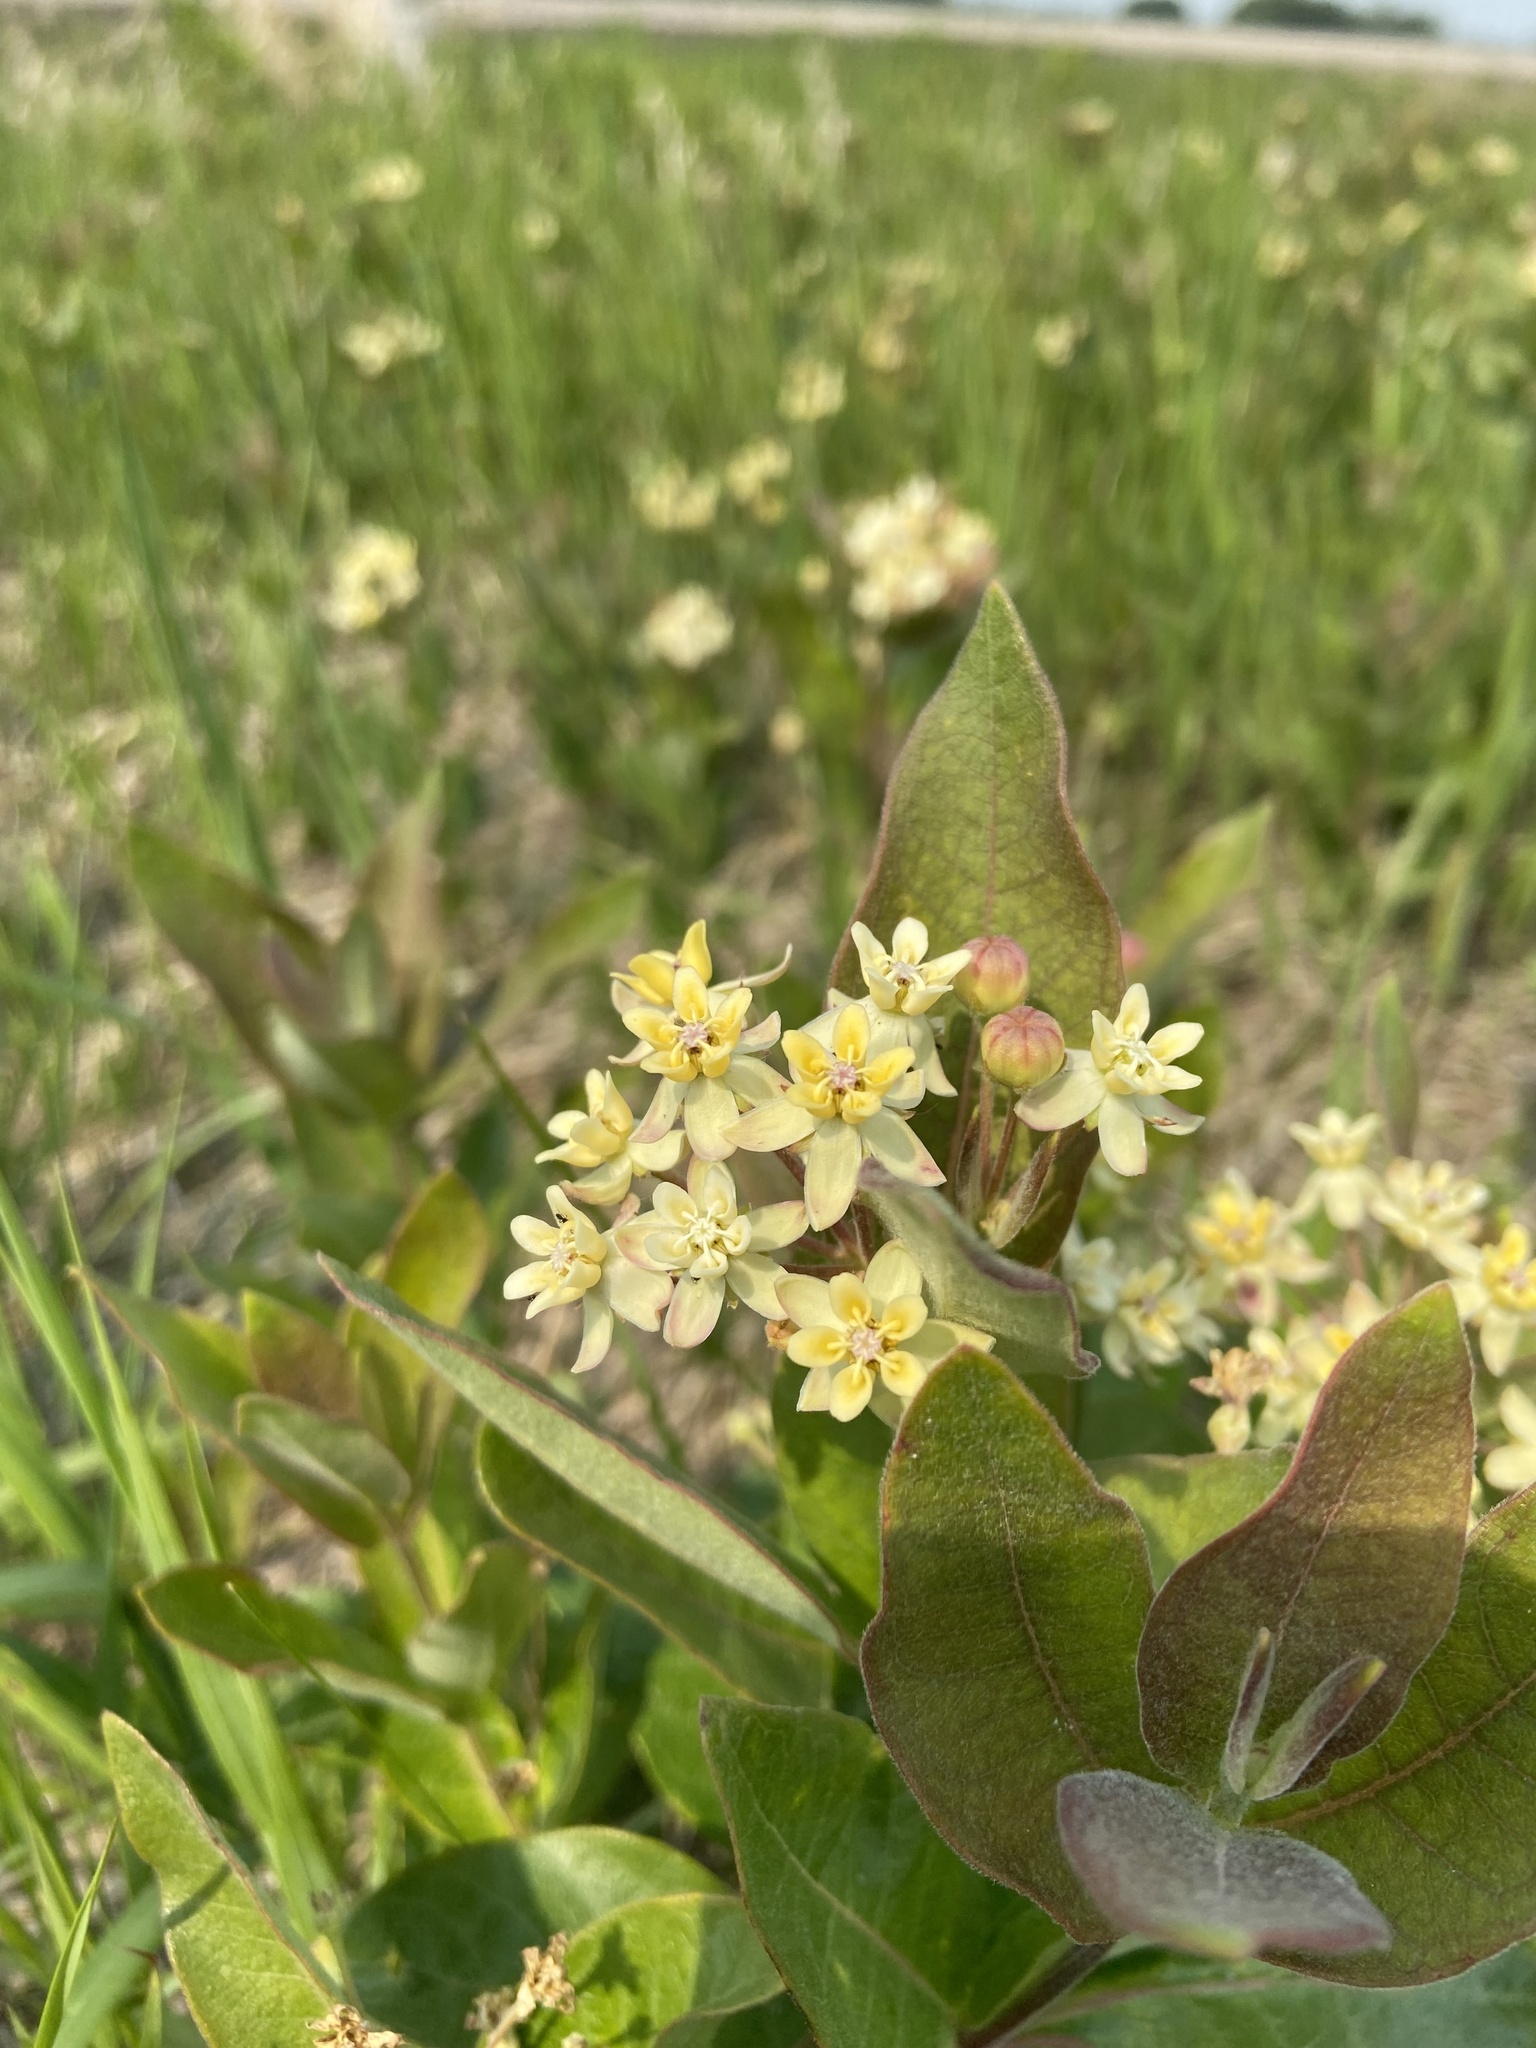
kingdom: Plantae
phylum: Tracheophyta
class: Magnoliopsida
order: Gentianales
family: Apocynaceae
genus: Asclepias
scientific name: Asclepias ovalifolia
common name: Dwarf milkweed
